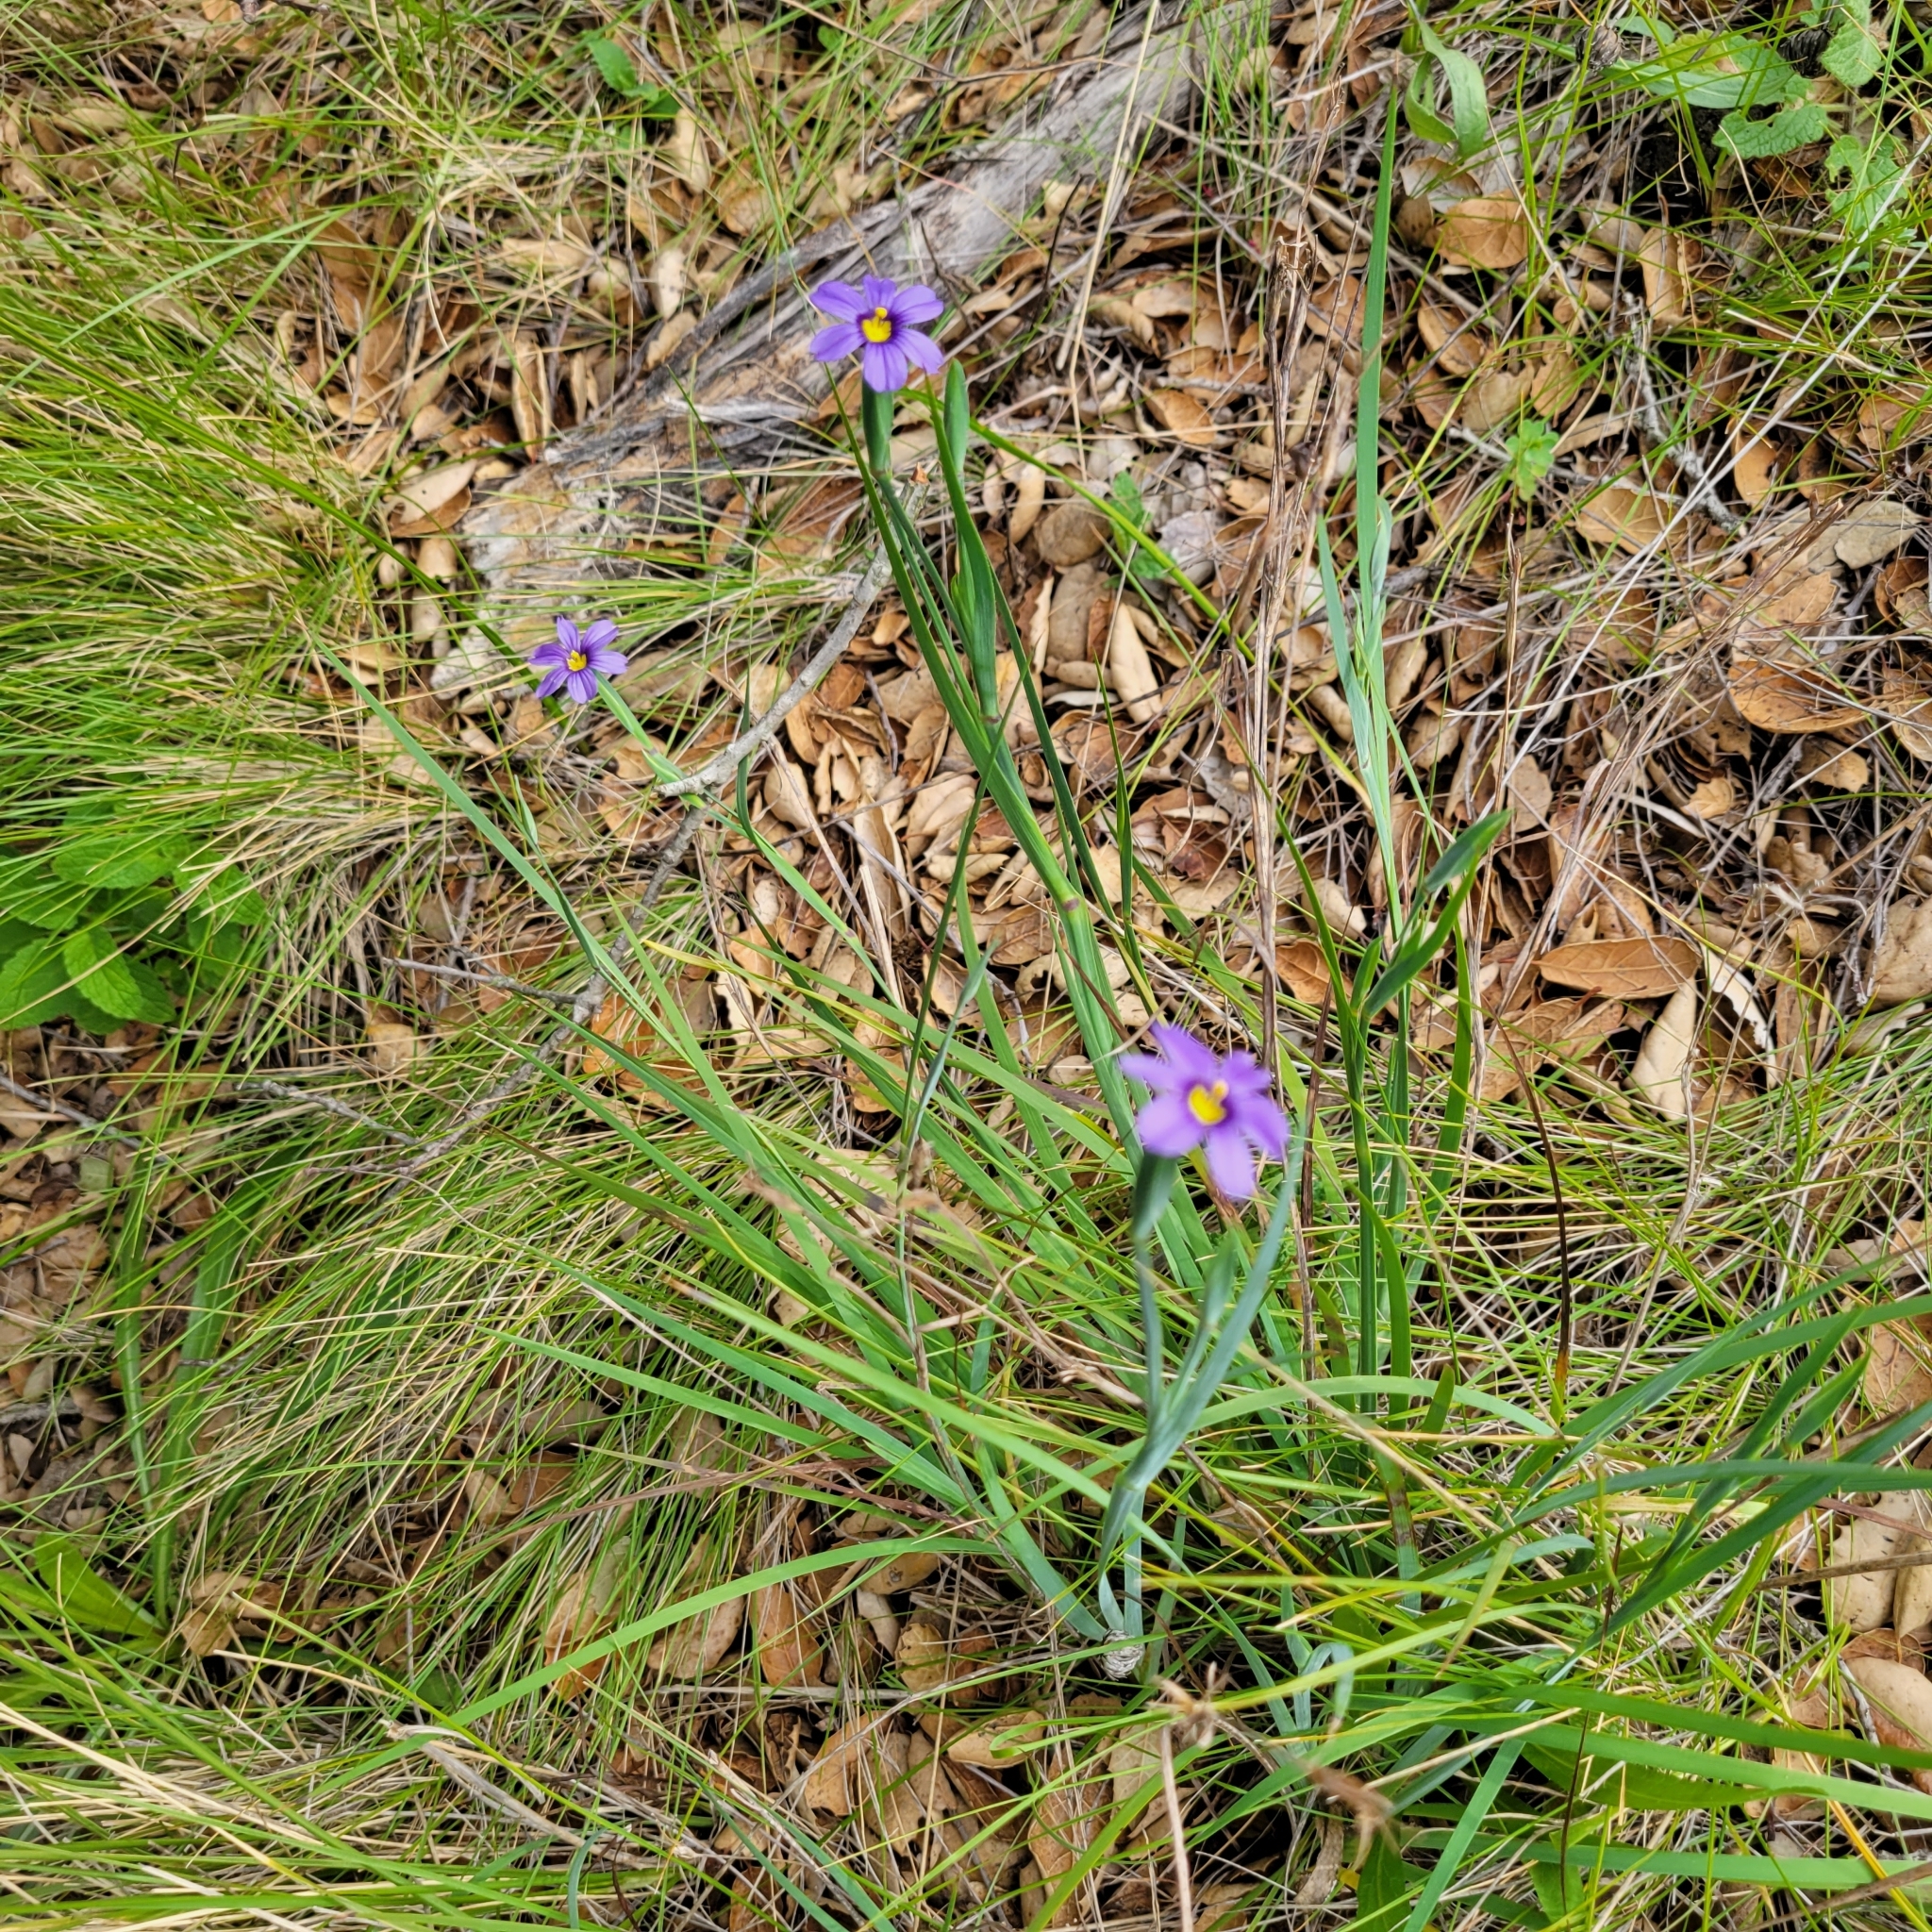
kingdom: Plantae
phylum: Tracheophyta
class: Liliopsida
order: Asparagales
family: Iridaceae
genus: Sisyrinchium
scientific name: Sisyrinchium bellum
